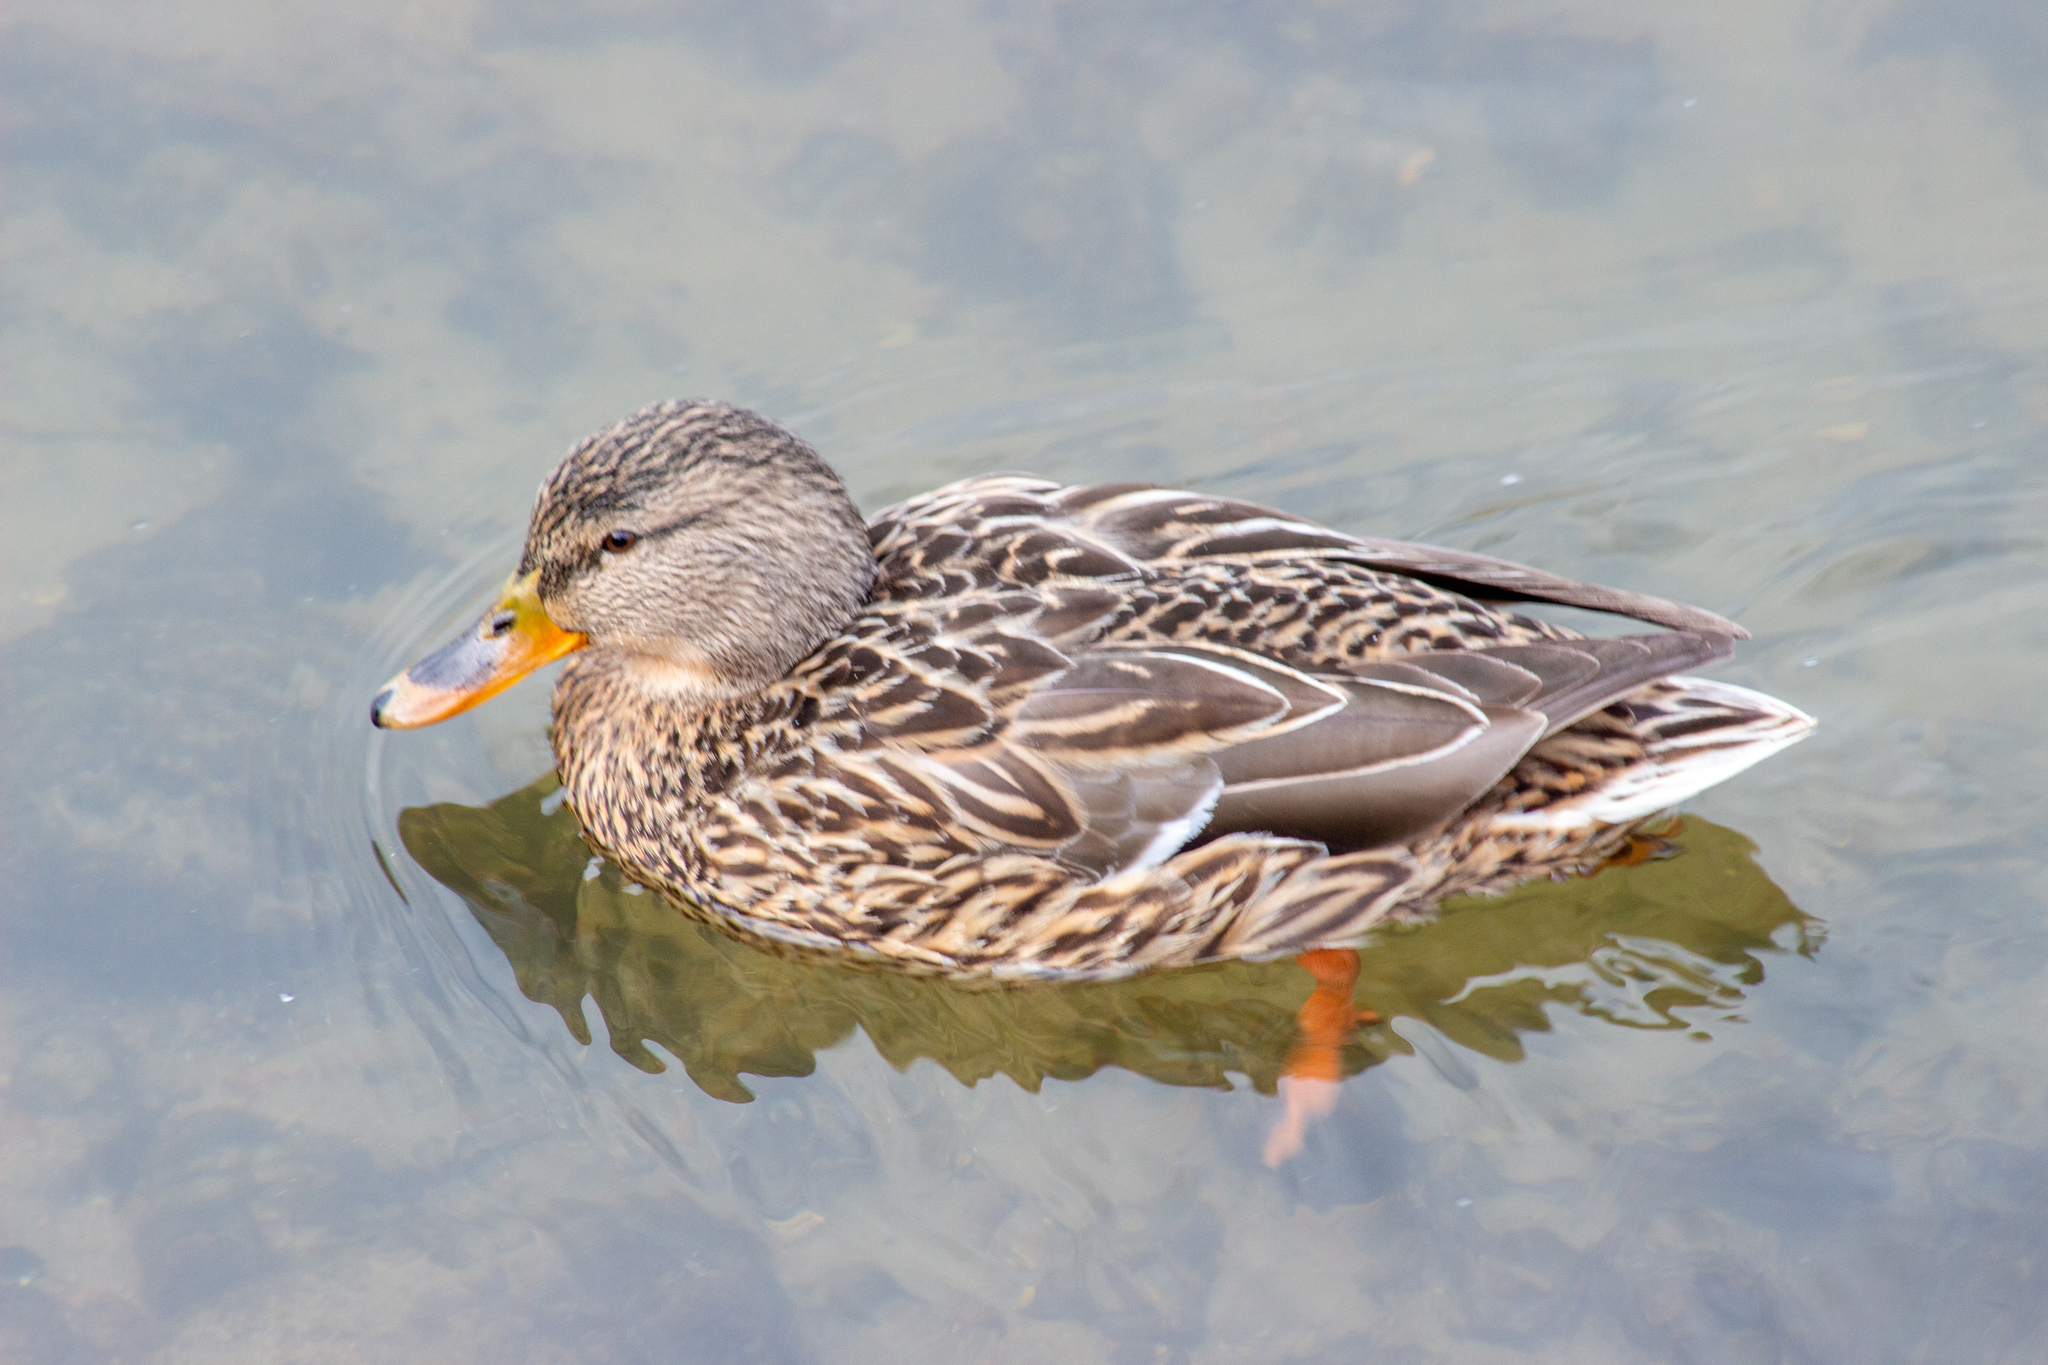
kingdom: Animalia
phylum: Chordata
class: Aves
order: Anseriformes
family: Anatidae
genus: Anas
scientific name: Anas platyrhynchos
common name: Mallard
